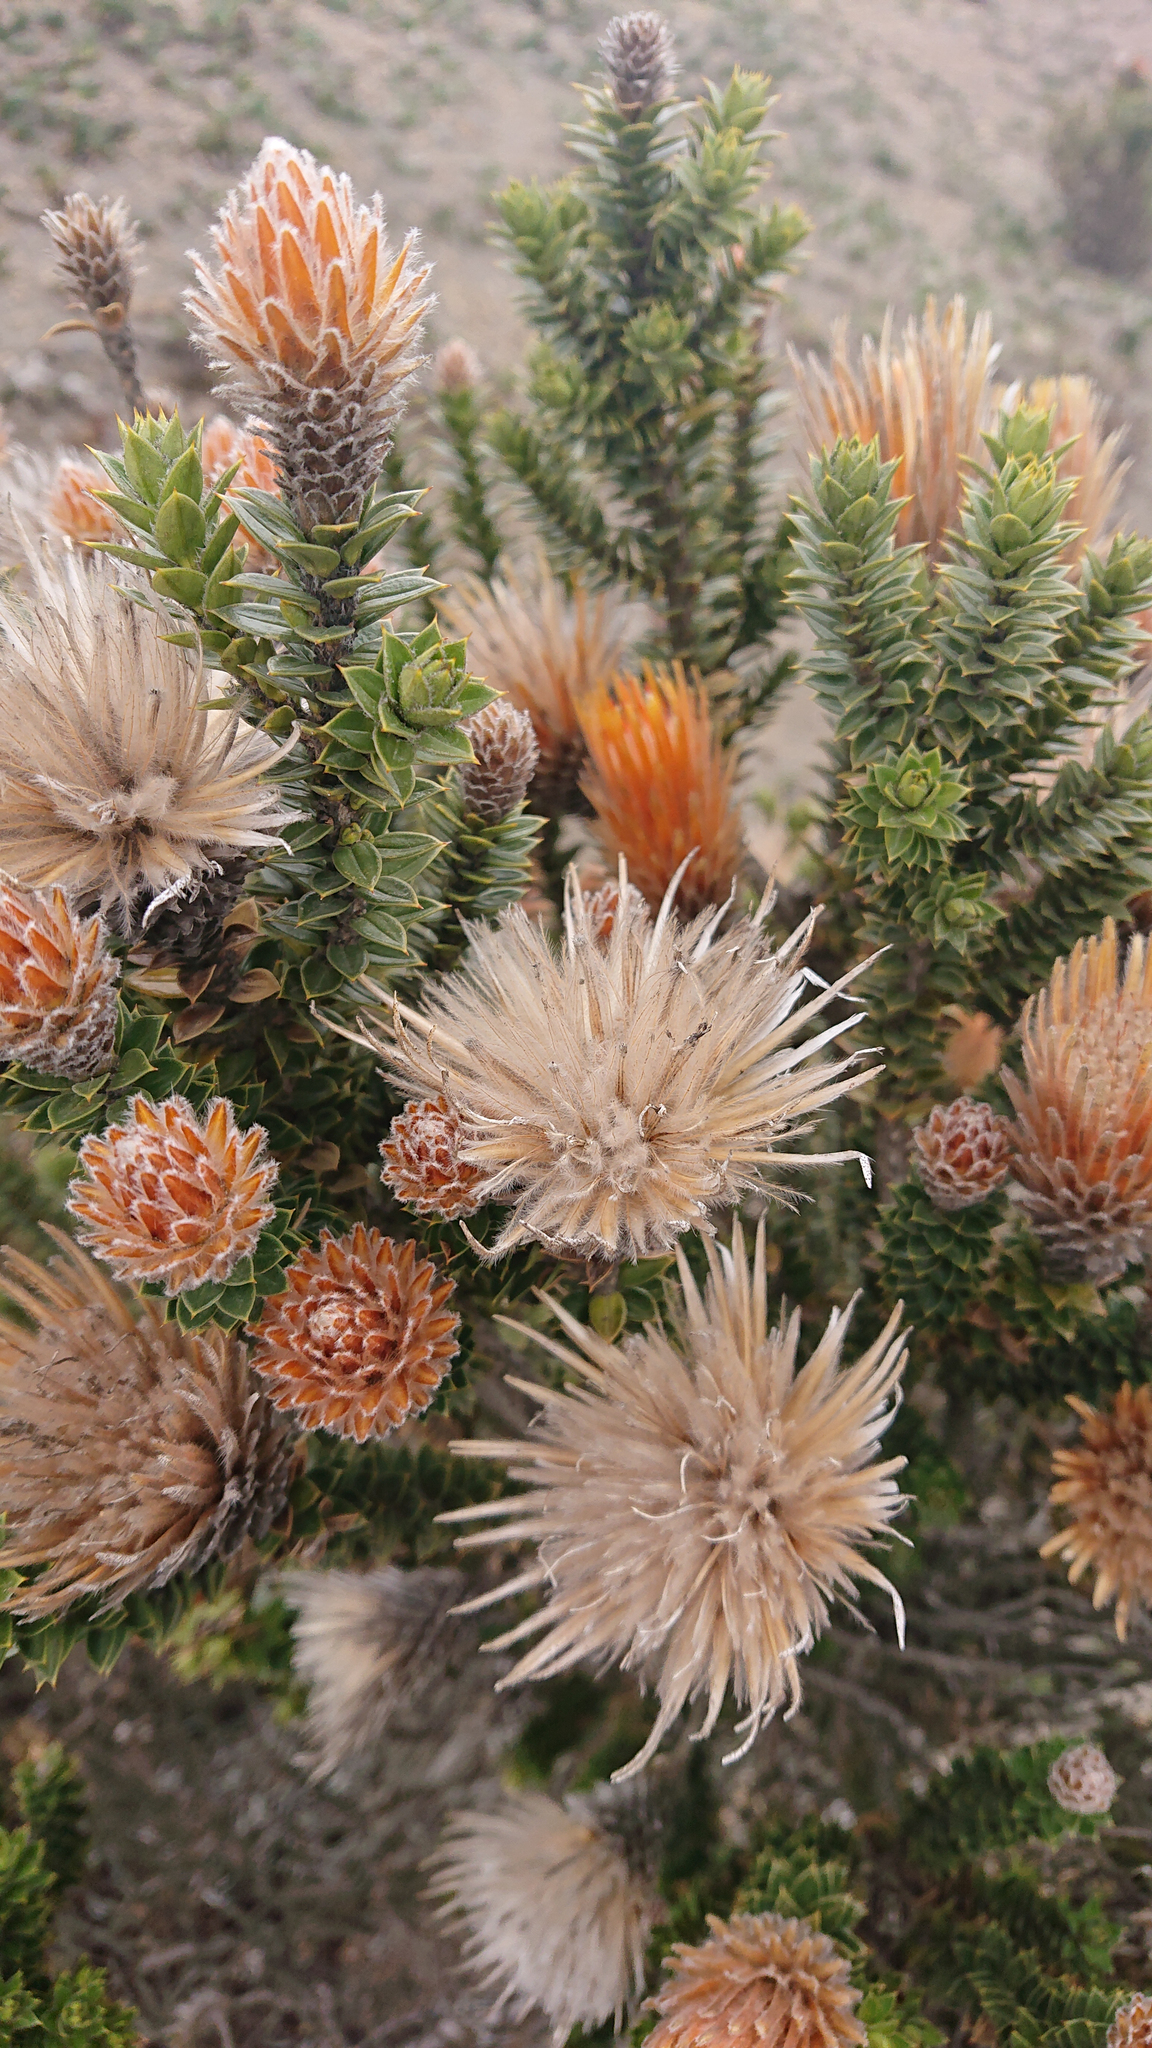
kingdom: Plantae
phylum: Tracheophyta
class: Magnoliopsida
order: Asterales
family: Asteraceae
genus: Chuquiraga
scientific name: Chuquiraga jussieui
